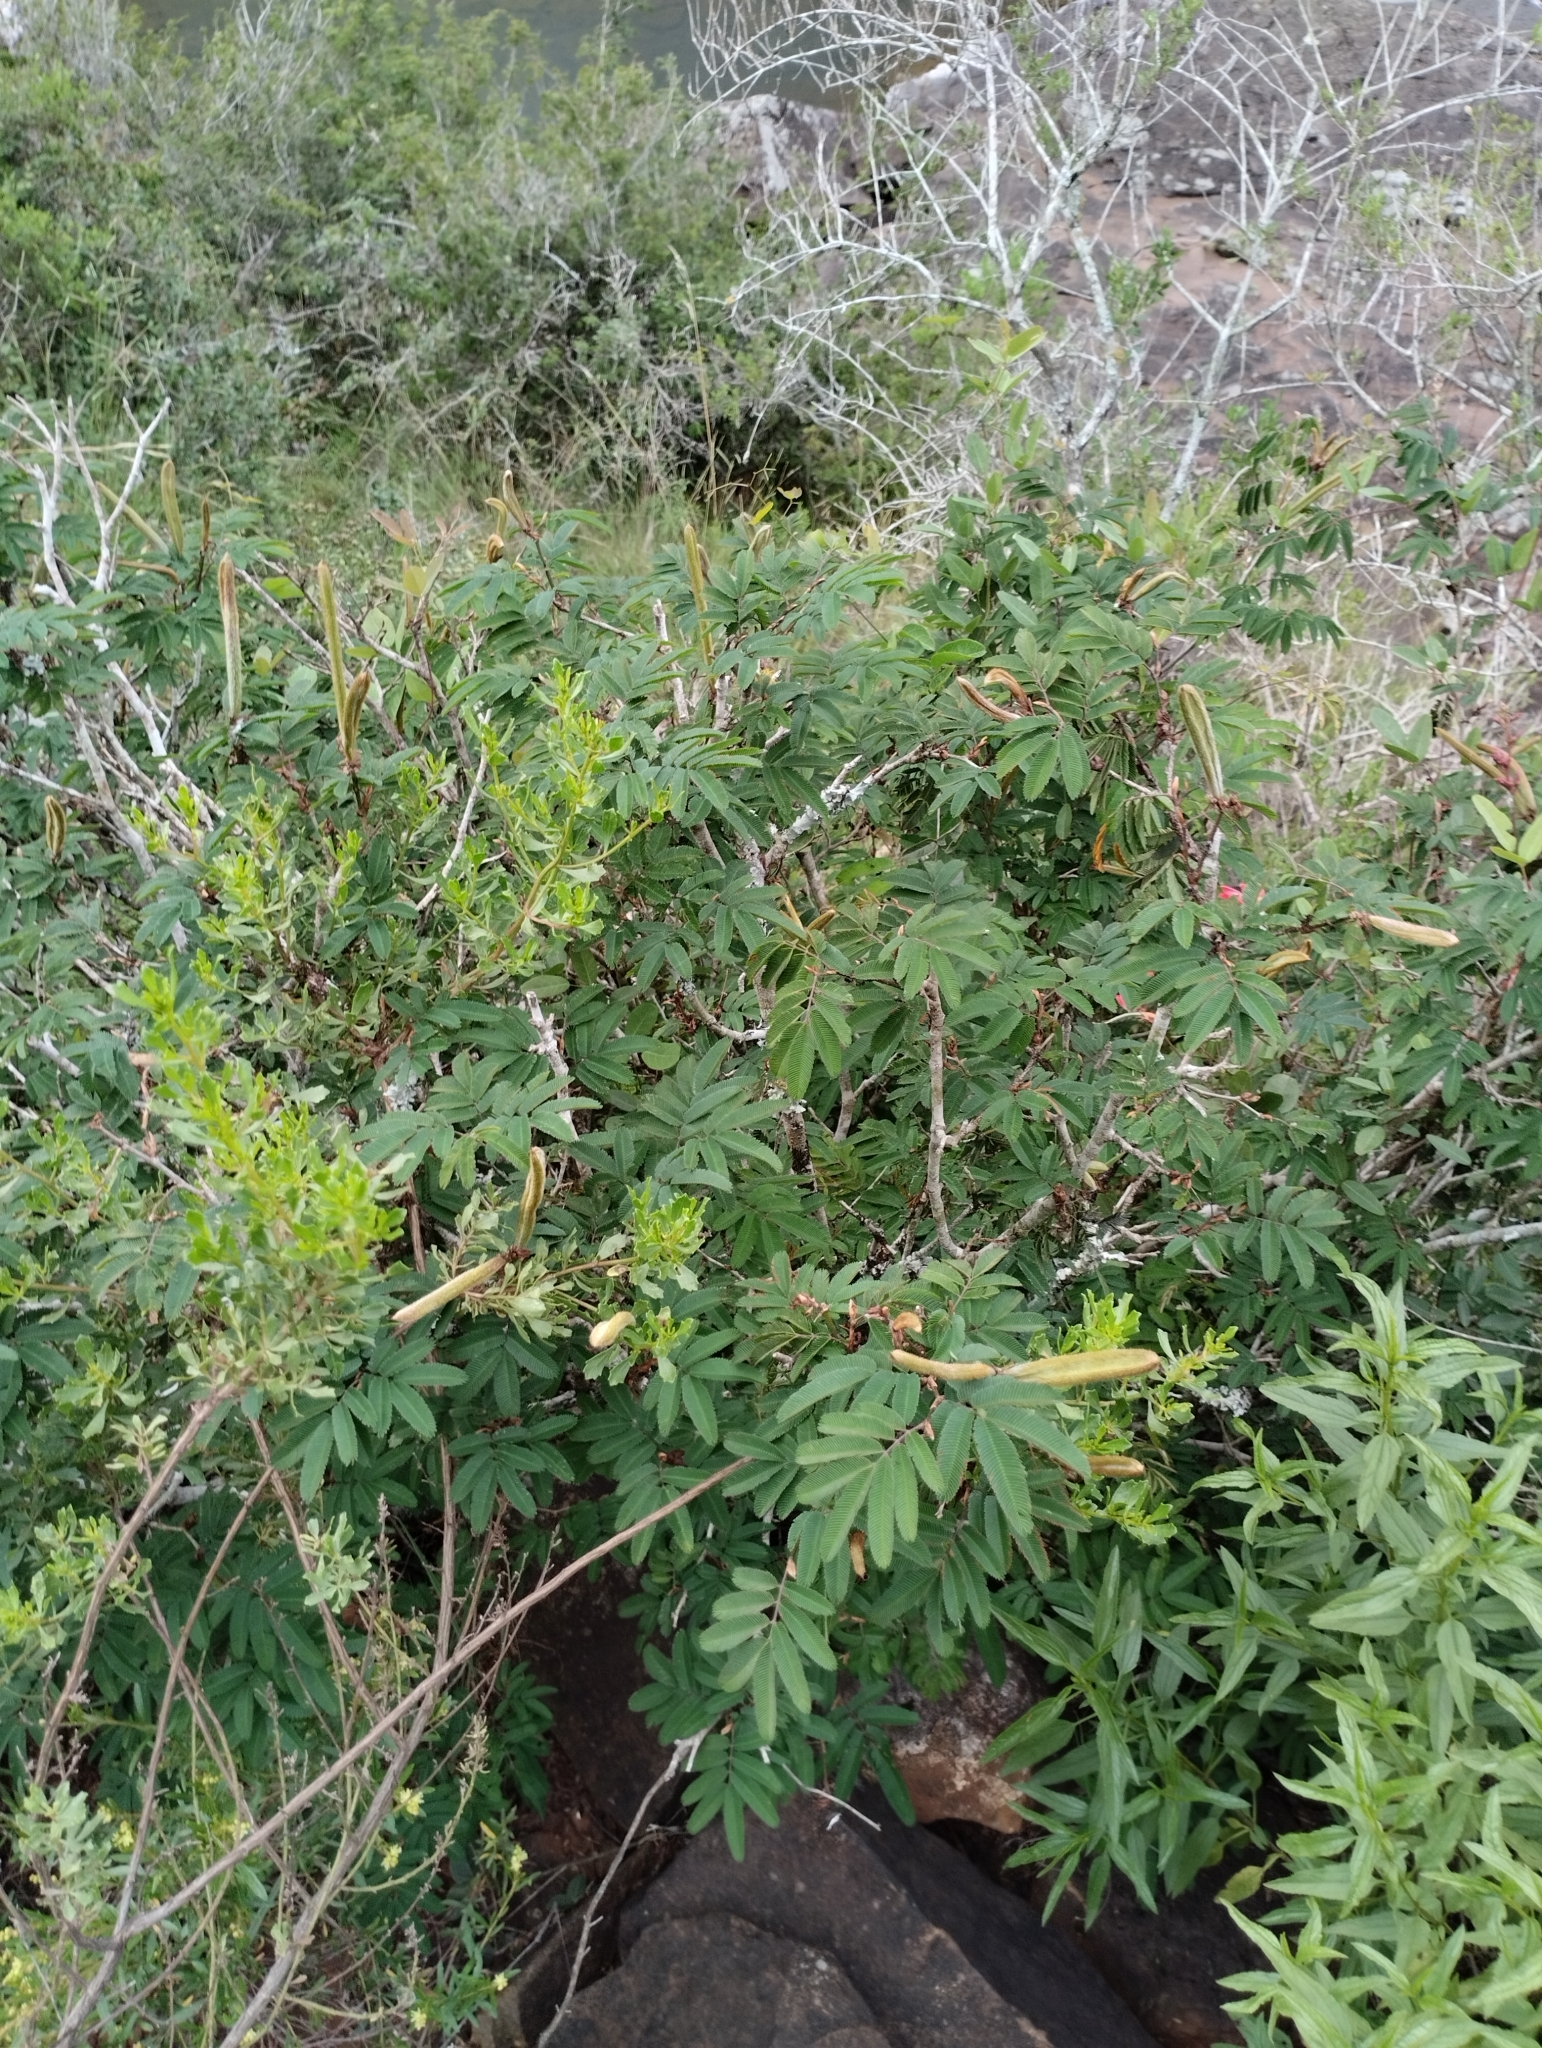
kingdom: Plantae
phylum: Tracheophyta
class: Magnoliopsida
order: Fabales
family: Fabaceae
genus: Calliandra
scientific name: Calliandra tweediei
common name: Mexican flamebush
